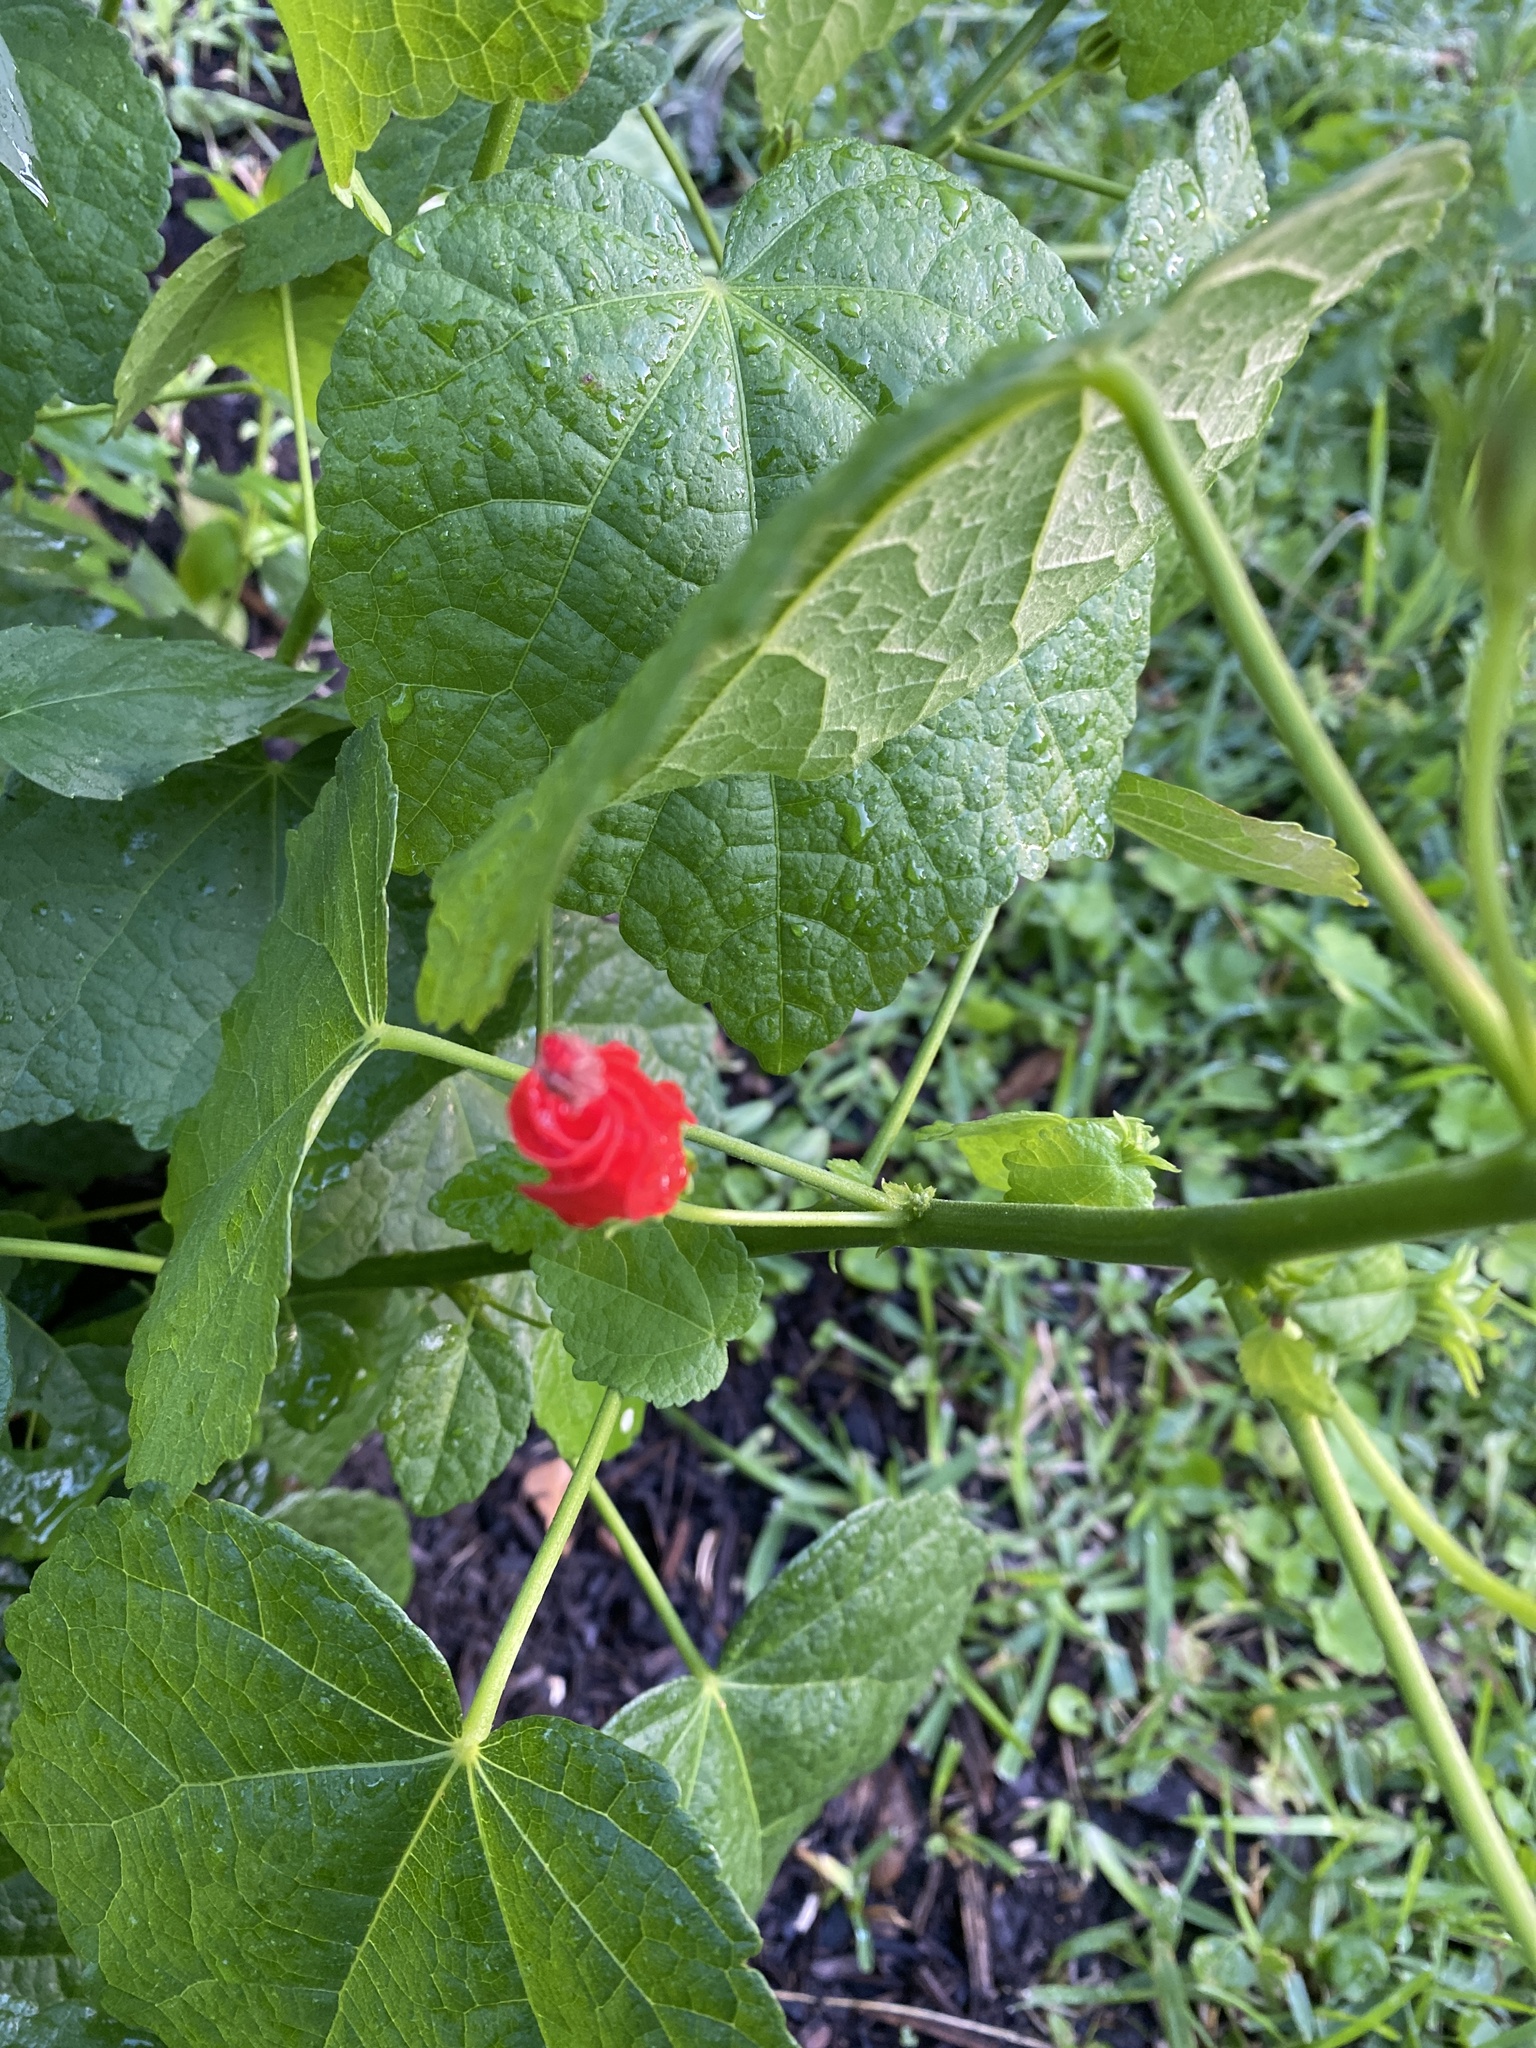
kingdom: Plantae
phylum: Tracheophyta
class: Magnoliopsida
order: Malvales
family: Malvaceae
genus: Malvaviscus
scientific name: Malvaviscus arboreus
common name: Wax mallow
